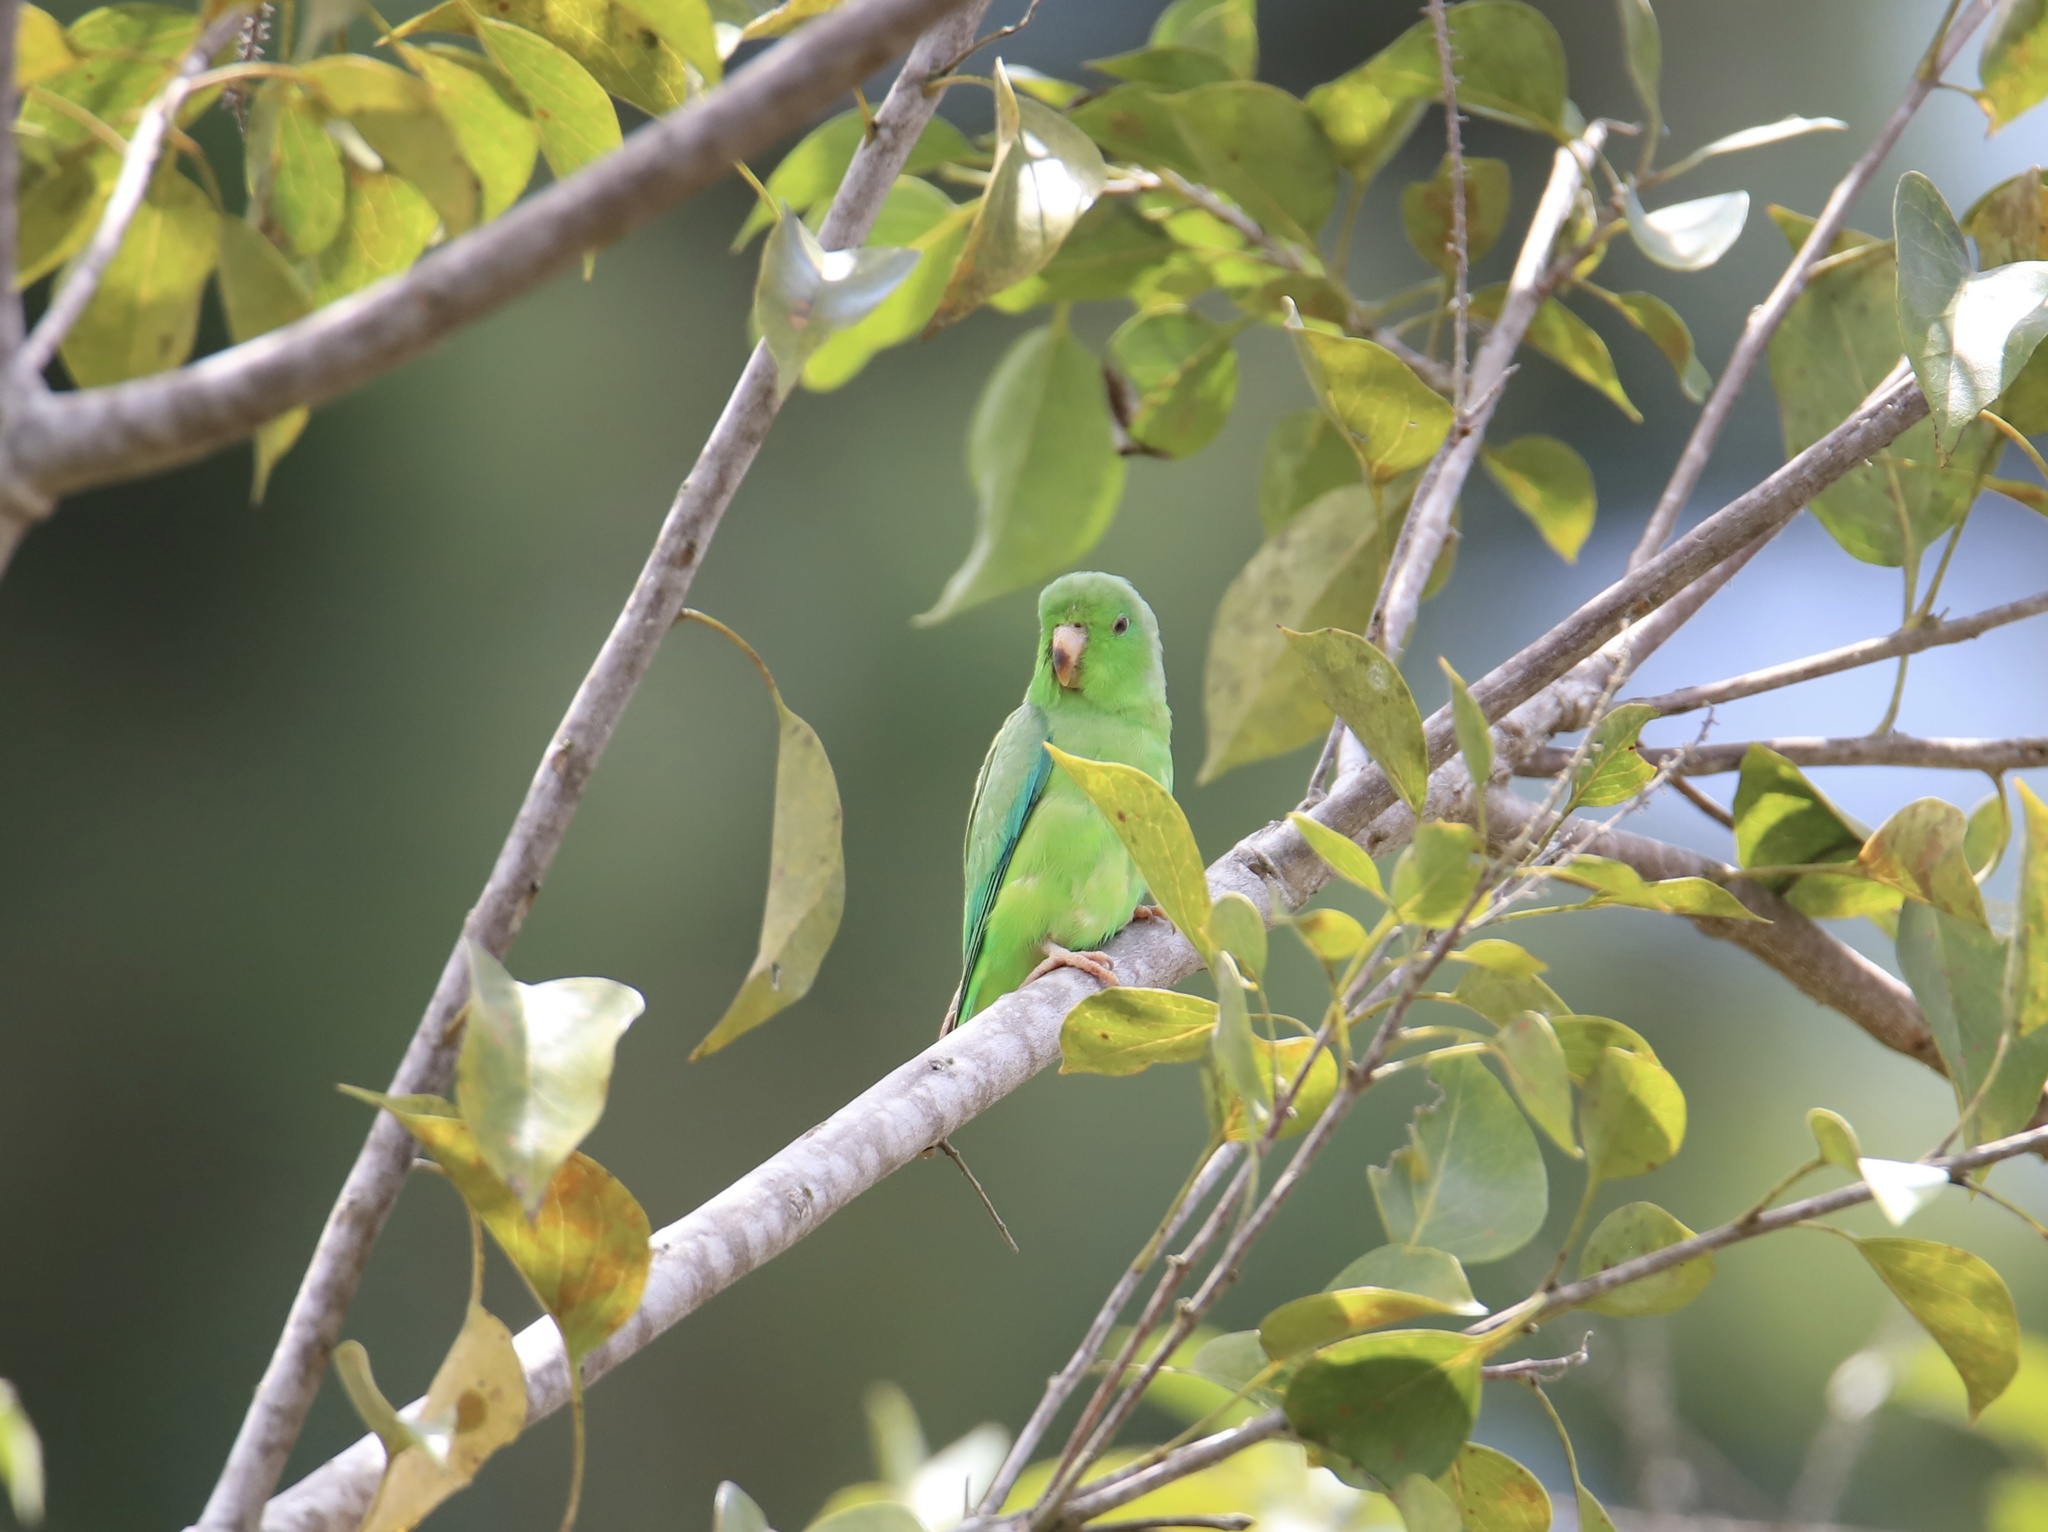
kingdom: Animalia
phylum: Chordata
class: Aves
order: Psittaciformes
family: Psittacidae
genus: Forpus
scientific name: Forpus passerinus
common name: Green-rumped parrotlet
